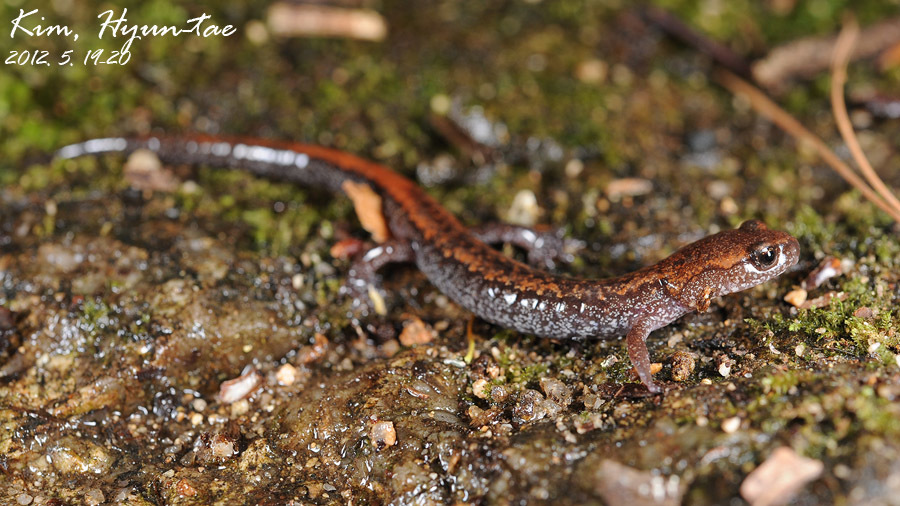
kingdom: Animalia
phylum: Chordata
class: Amphibia
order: Caudata
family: Plethodontidae
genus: Karsenia
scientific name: Karsenia koreana
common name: Korean crevice salamander
